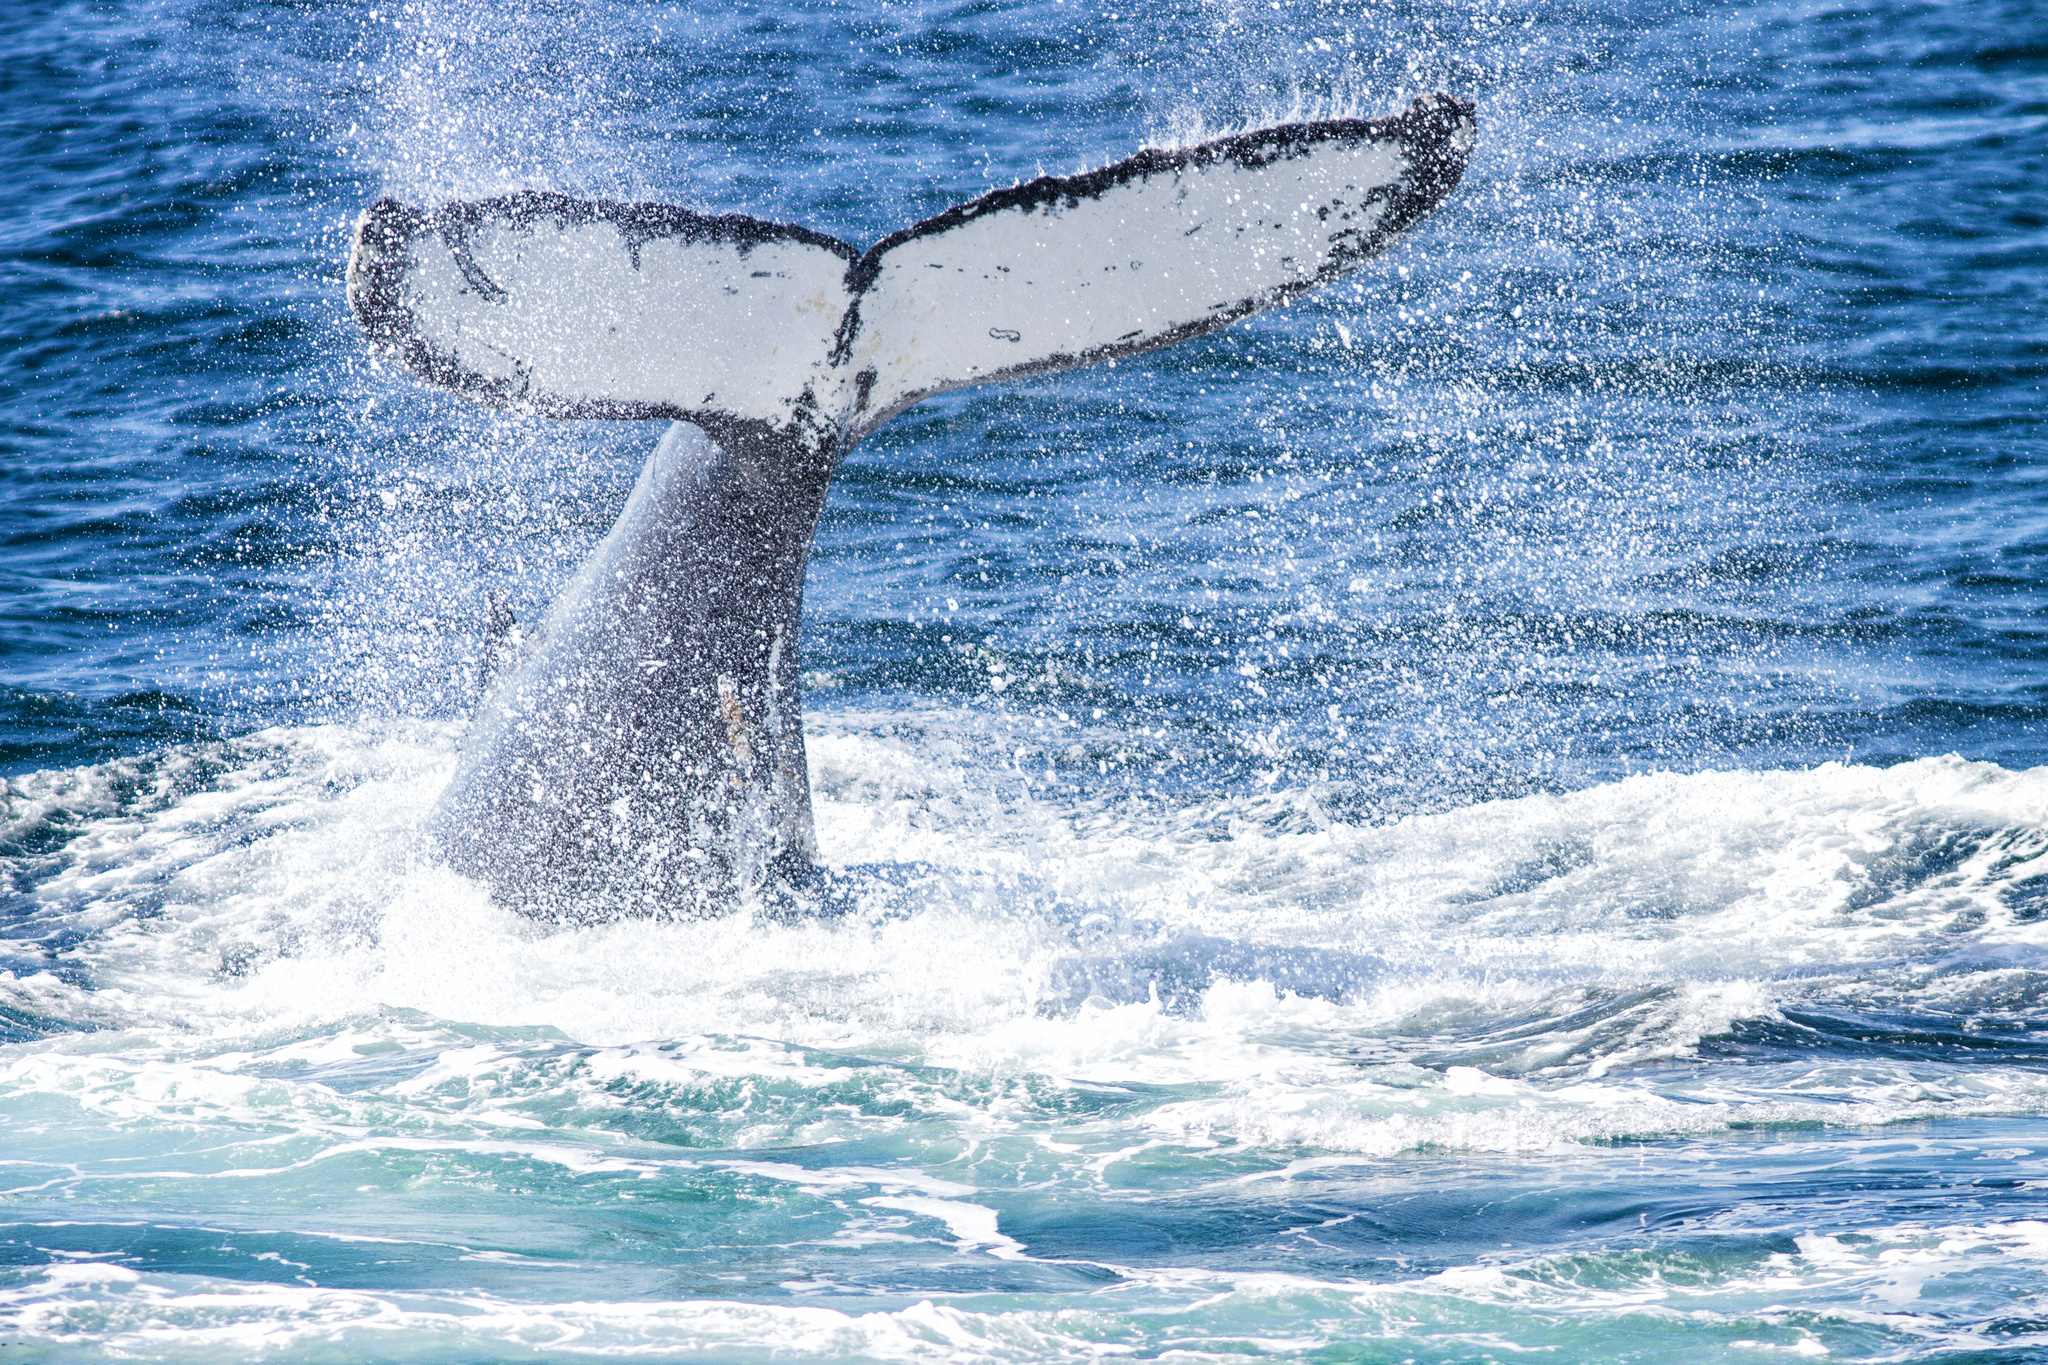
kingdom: Animalia
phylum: Chordata
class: Mammalia
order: Cetacea
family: Balaenopteridae
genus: Megaptera
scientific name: Megaptera novaeangliae
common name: Humpback whale
